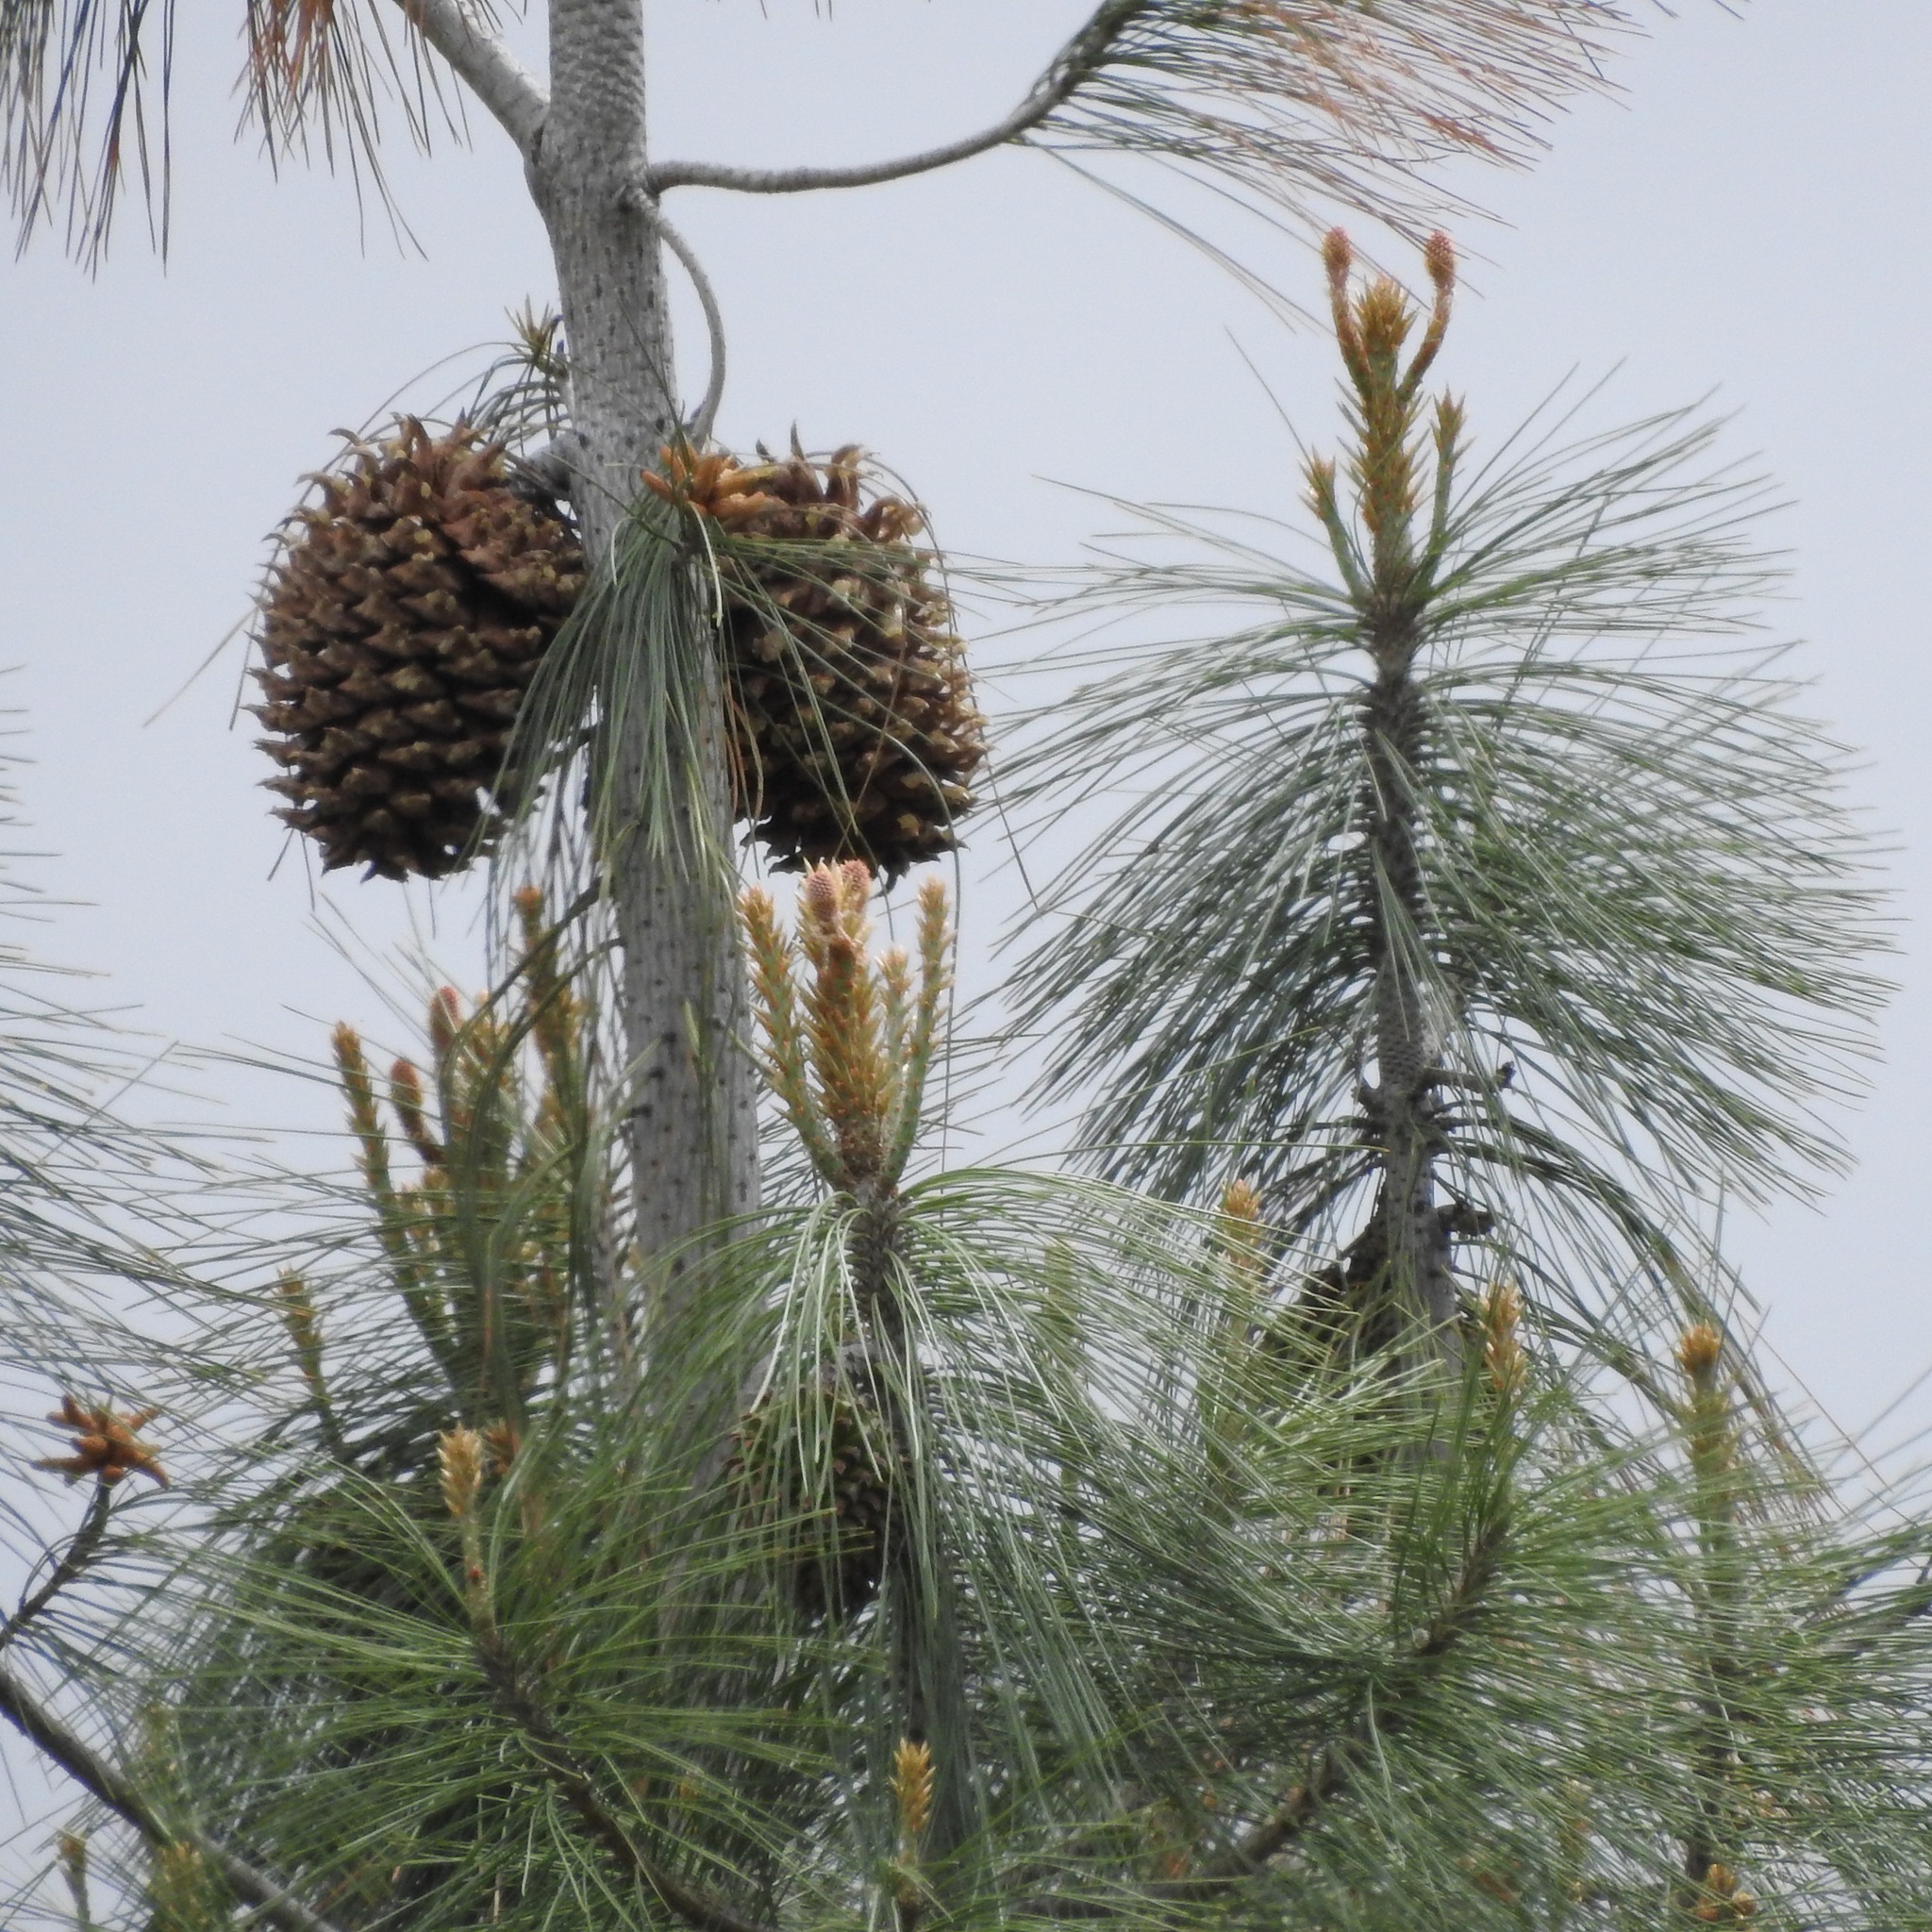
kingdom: Plantae
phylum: Tracheophyta
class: Pinopsida
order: Pinales
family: Pinaceae
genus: Pinus
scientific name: Pinus sabiniana
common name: Bull pine
